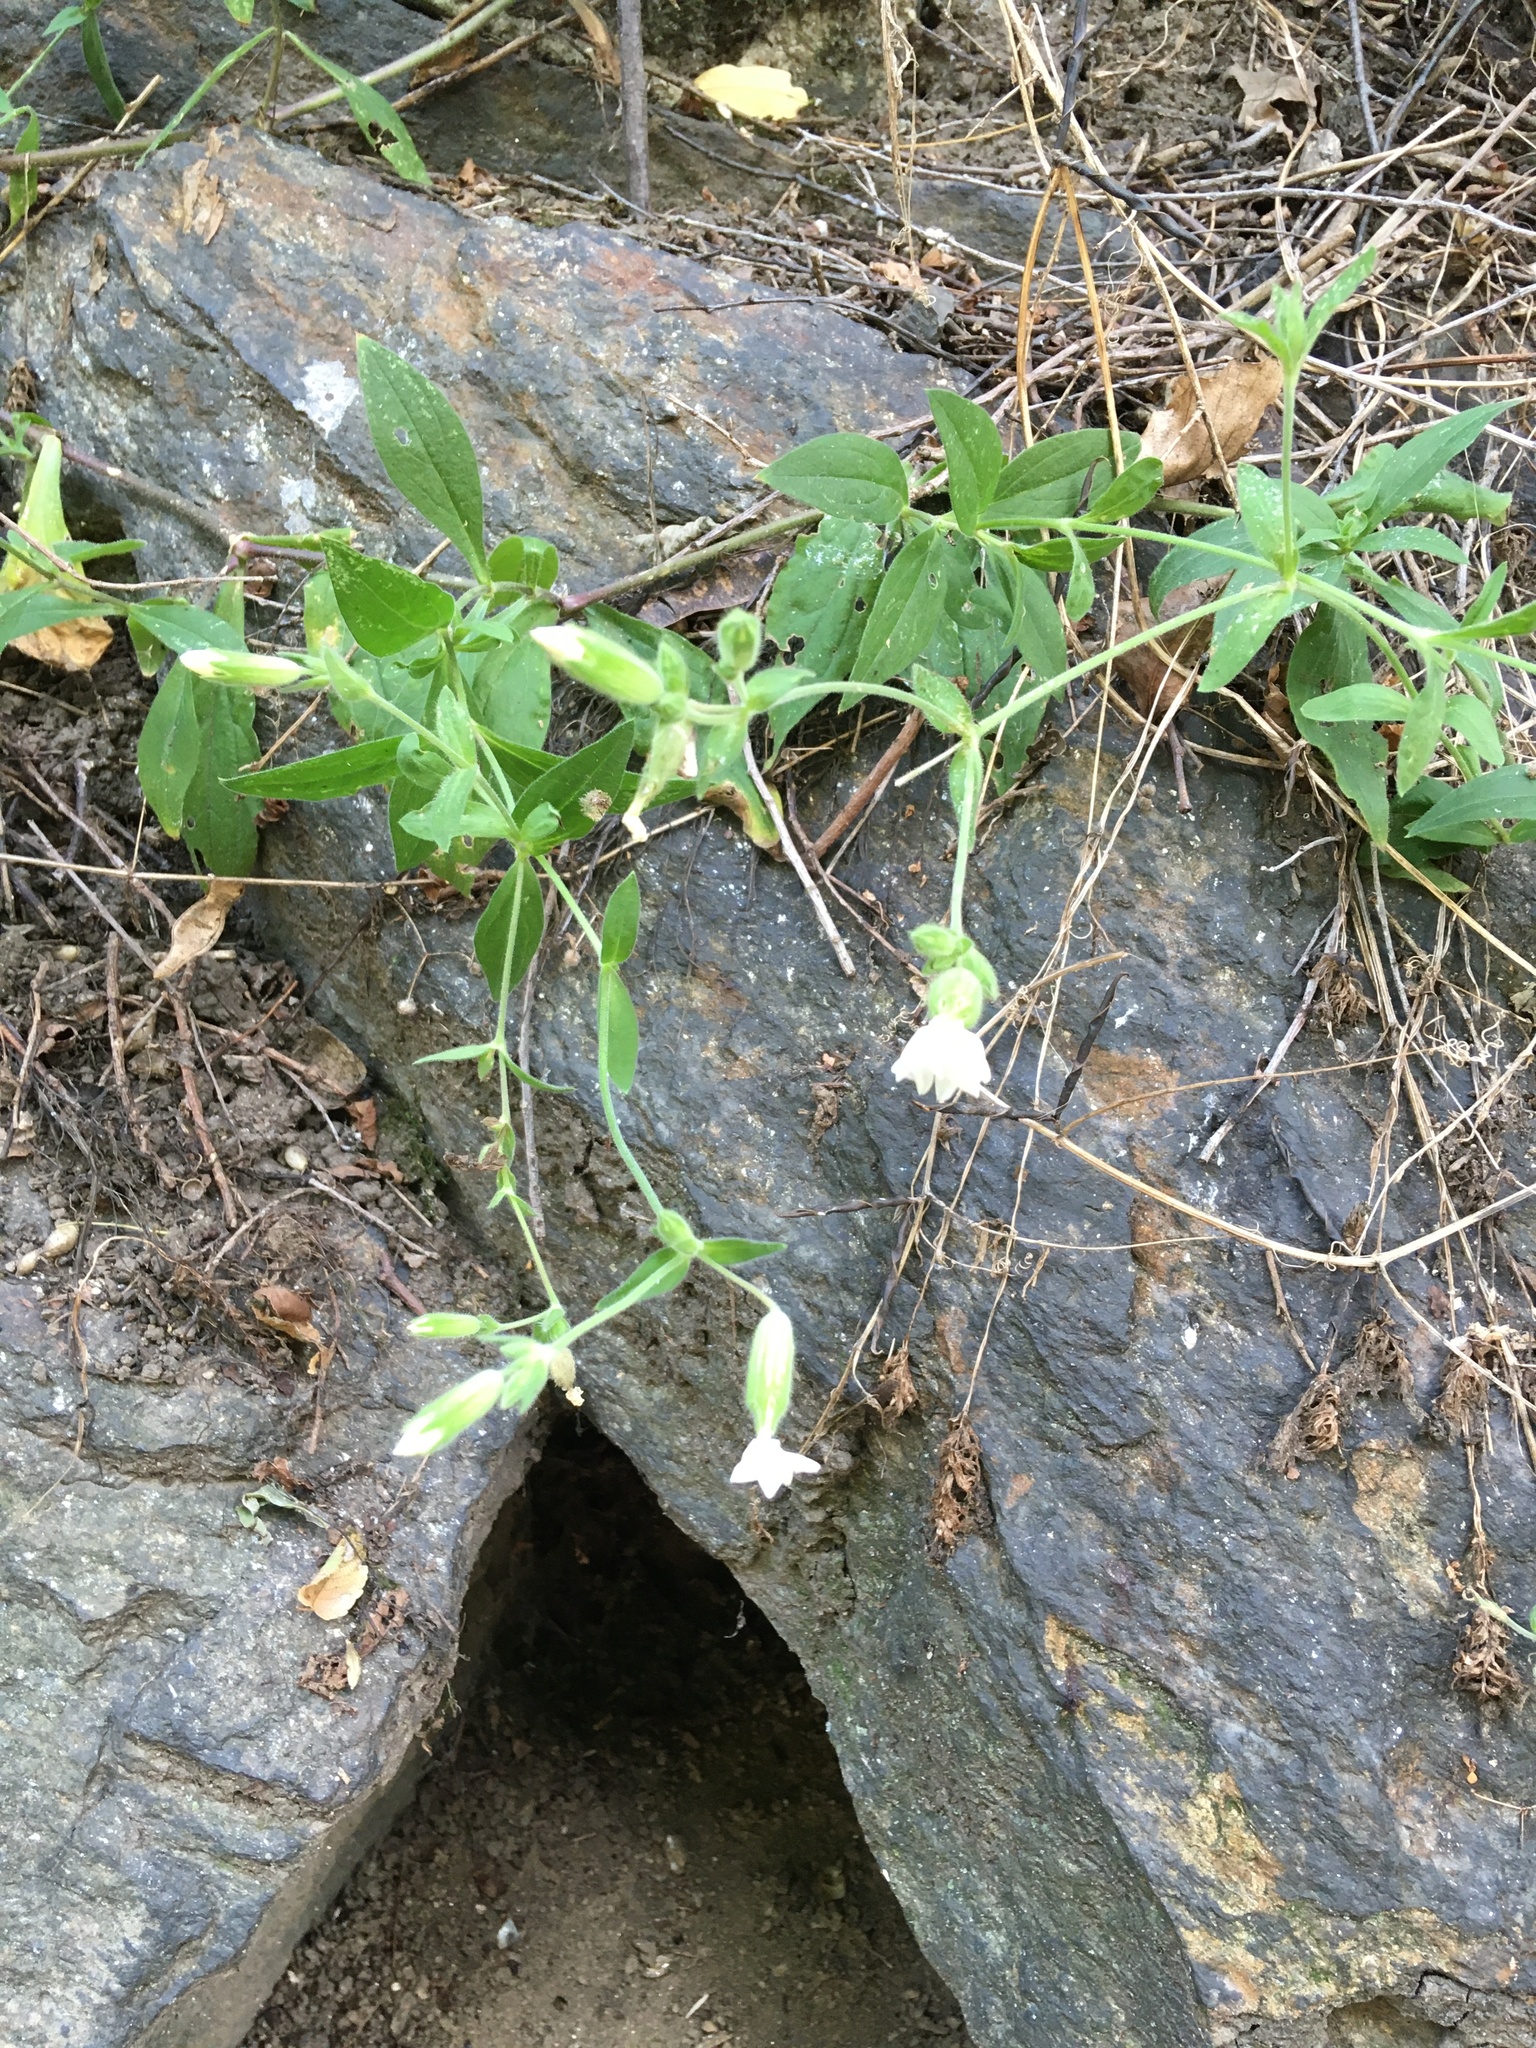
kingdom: Plantae
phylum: Tracheophyta
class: Magnoliopsida
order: Caryophyllales
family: Caryophyllaceae
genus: Silene
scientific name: Silene latifolia
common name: White campion
